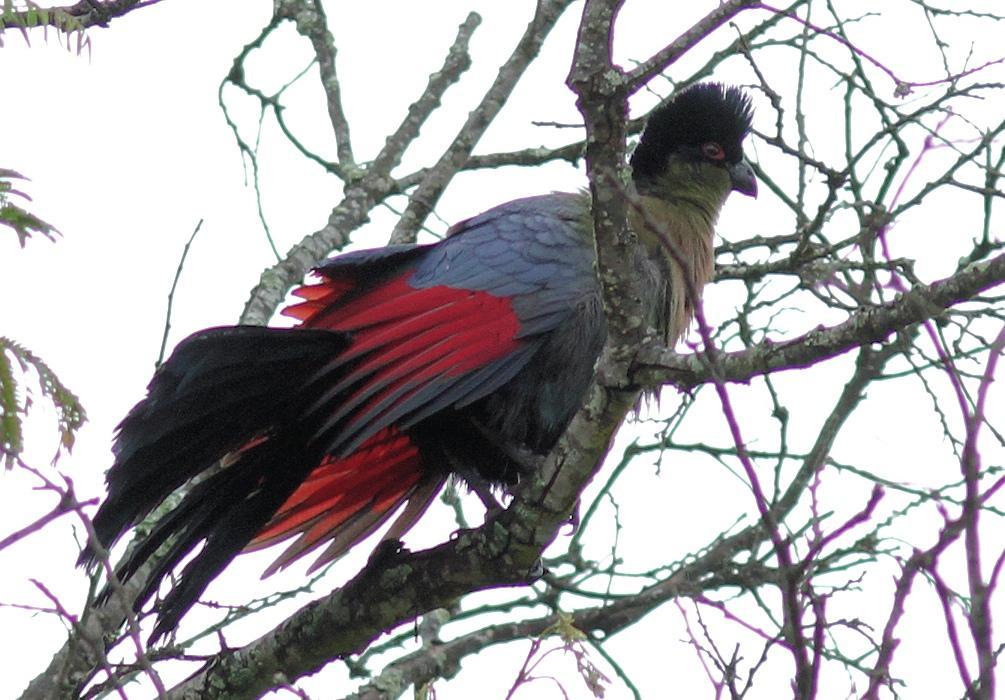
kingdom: Animalia
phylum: Chordata
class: Aves
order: Musophagiformes
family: Musophagidae
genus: Tauraco
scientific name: Tauraco porphyreolophus
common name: Purple-crested turaco
